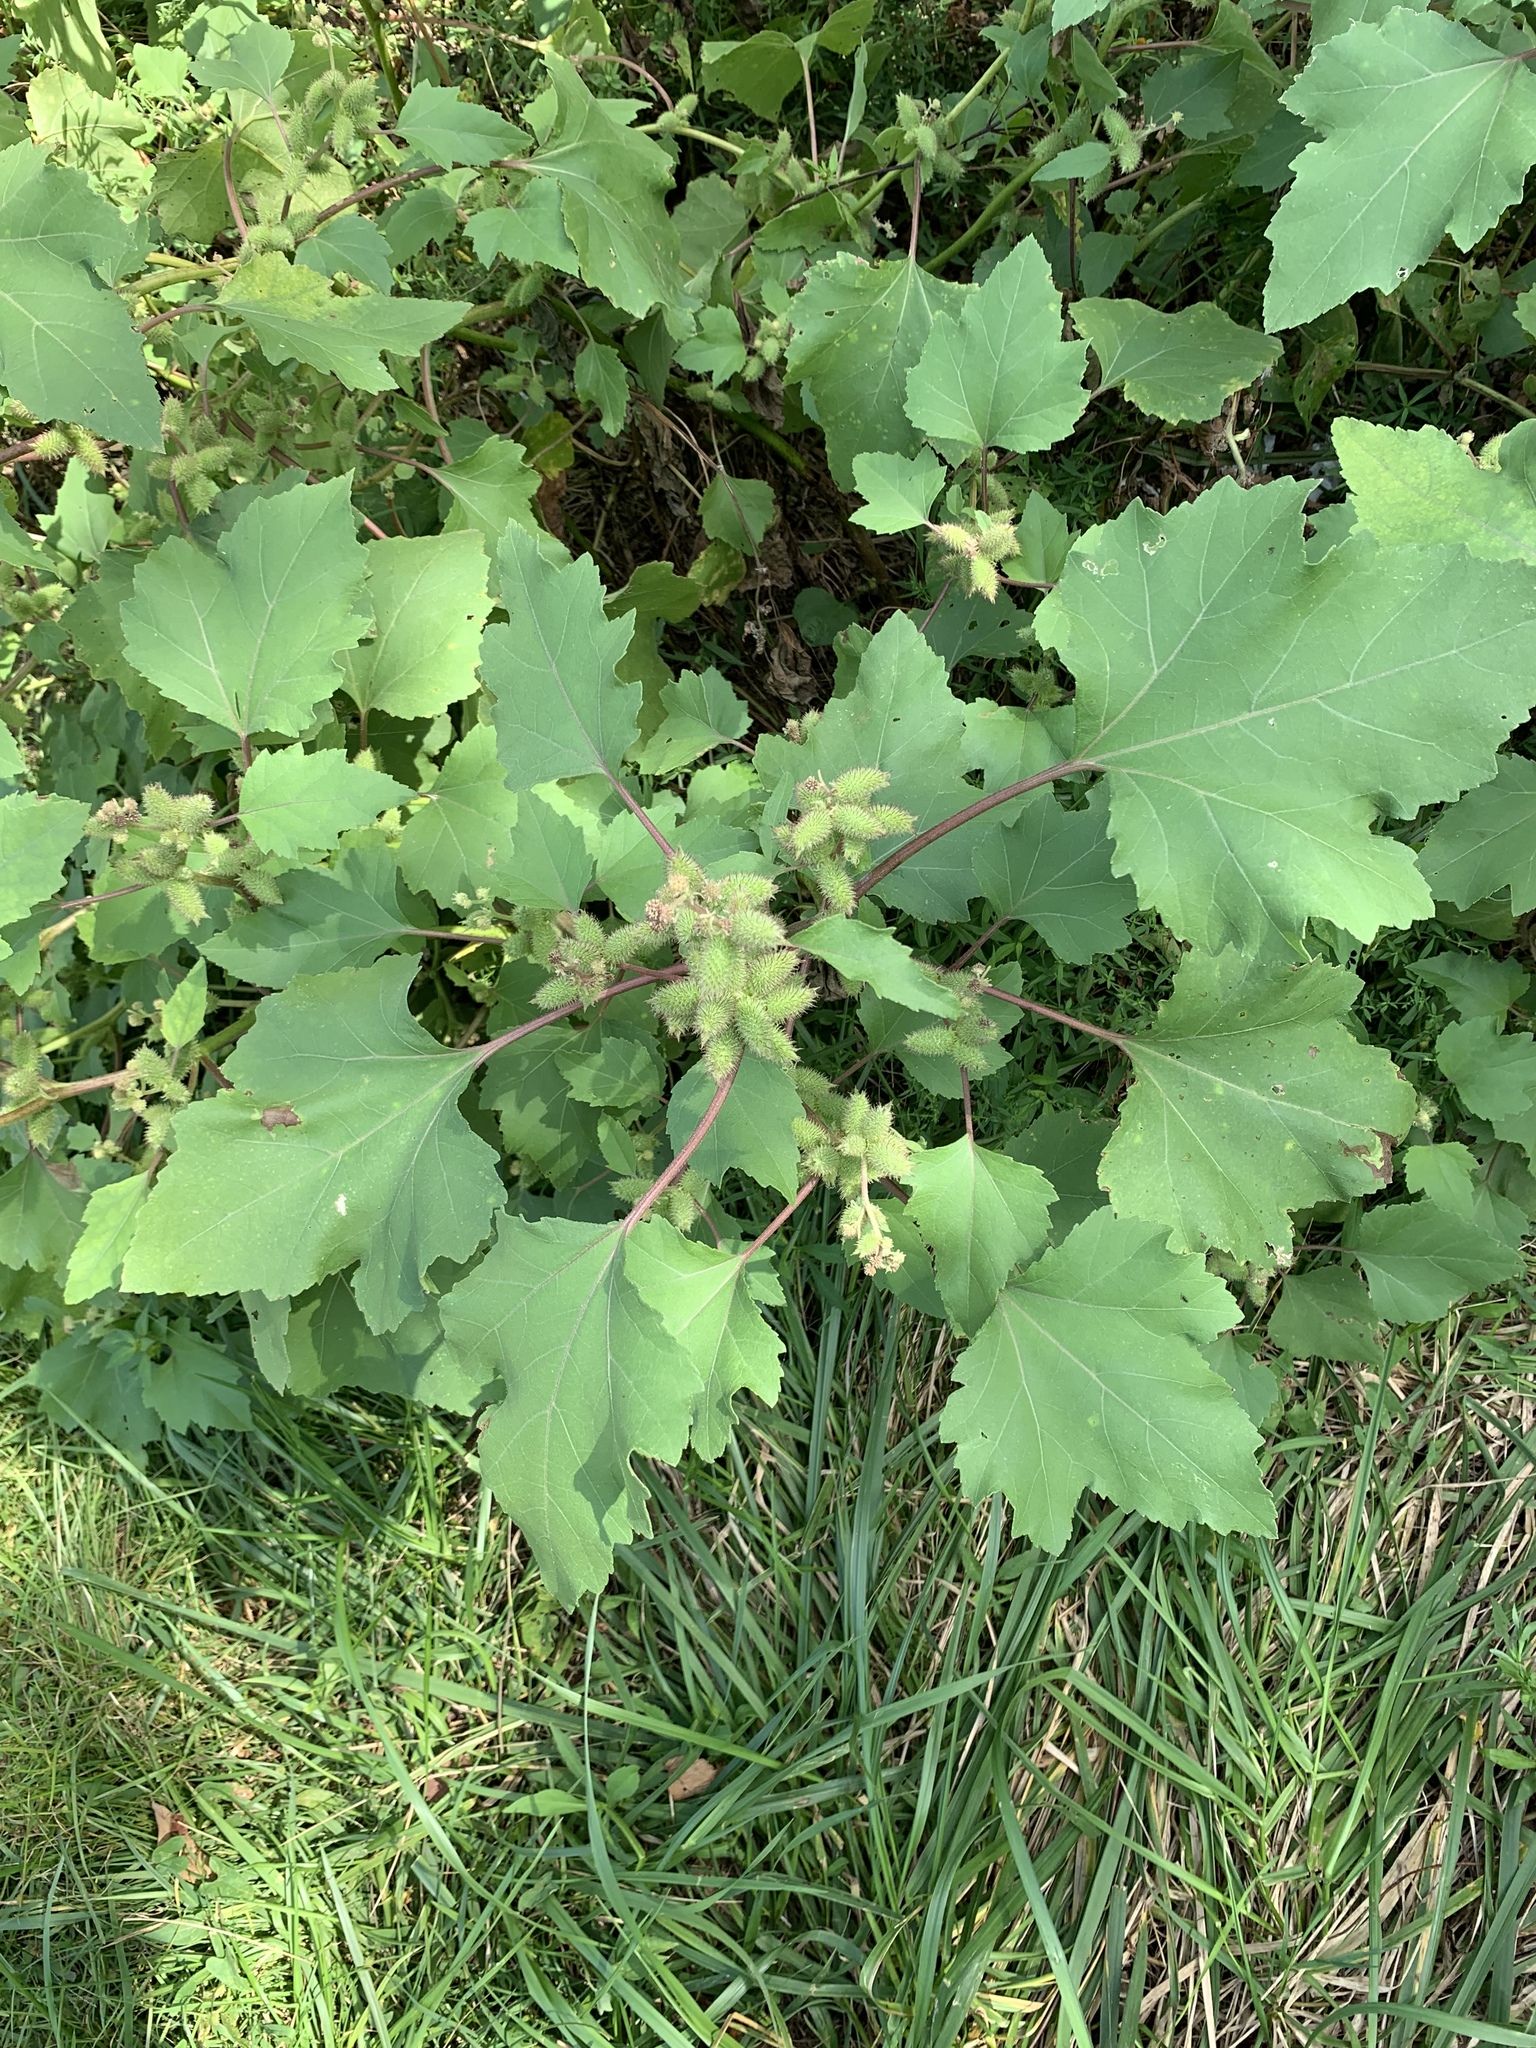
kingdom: Plantae
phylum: Tracheophyta
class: Magnoliopsida
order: Asterales
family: Asteraceae
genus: Xanthium
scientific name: Xanthium strumarium
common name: Rough cocklebur
